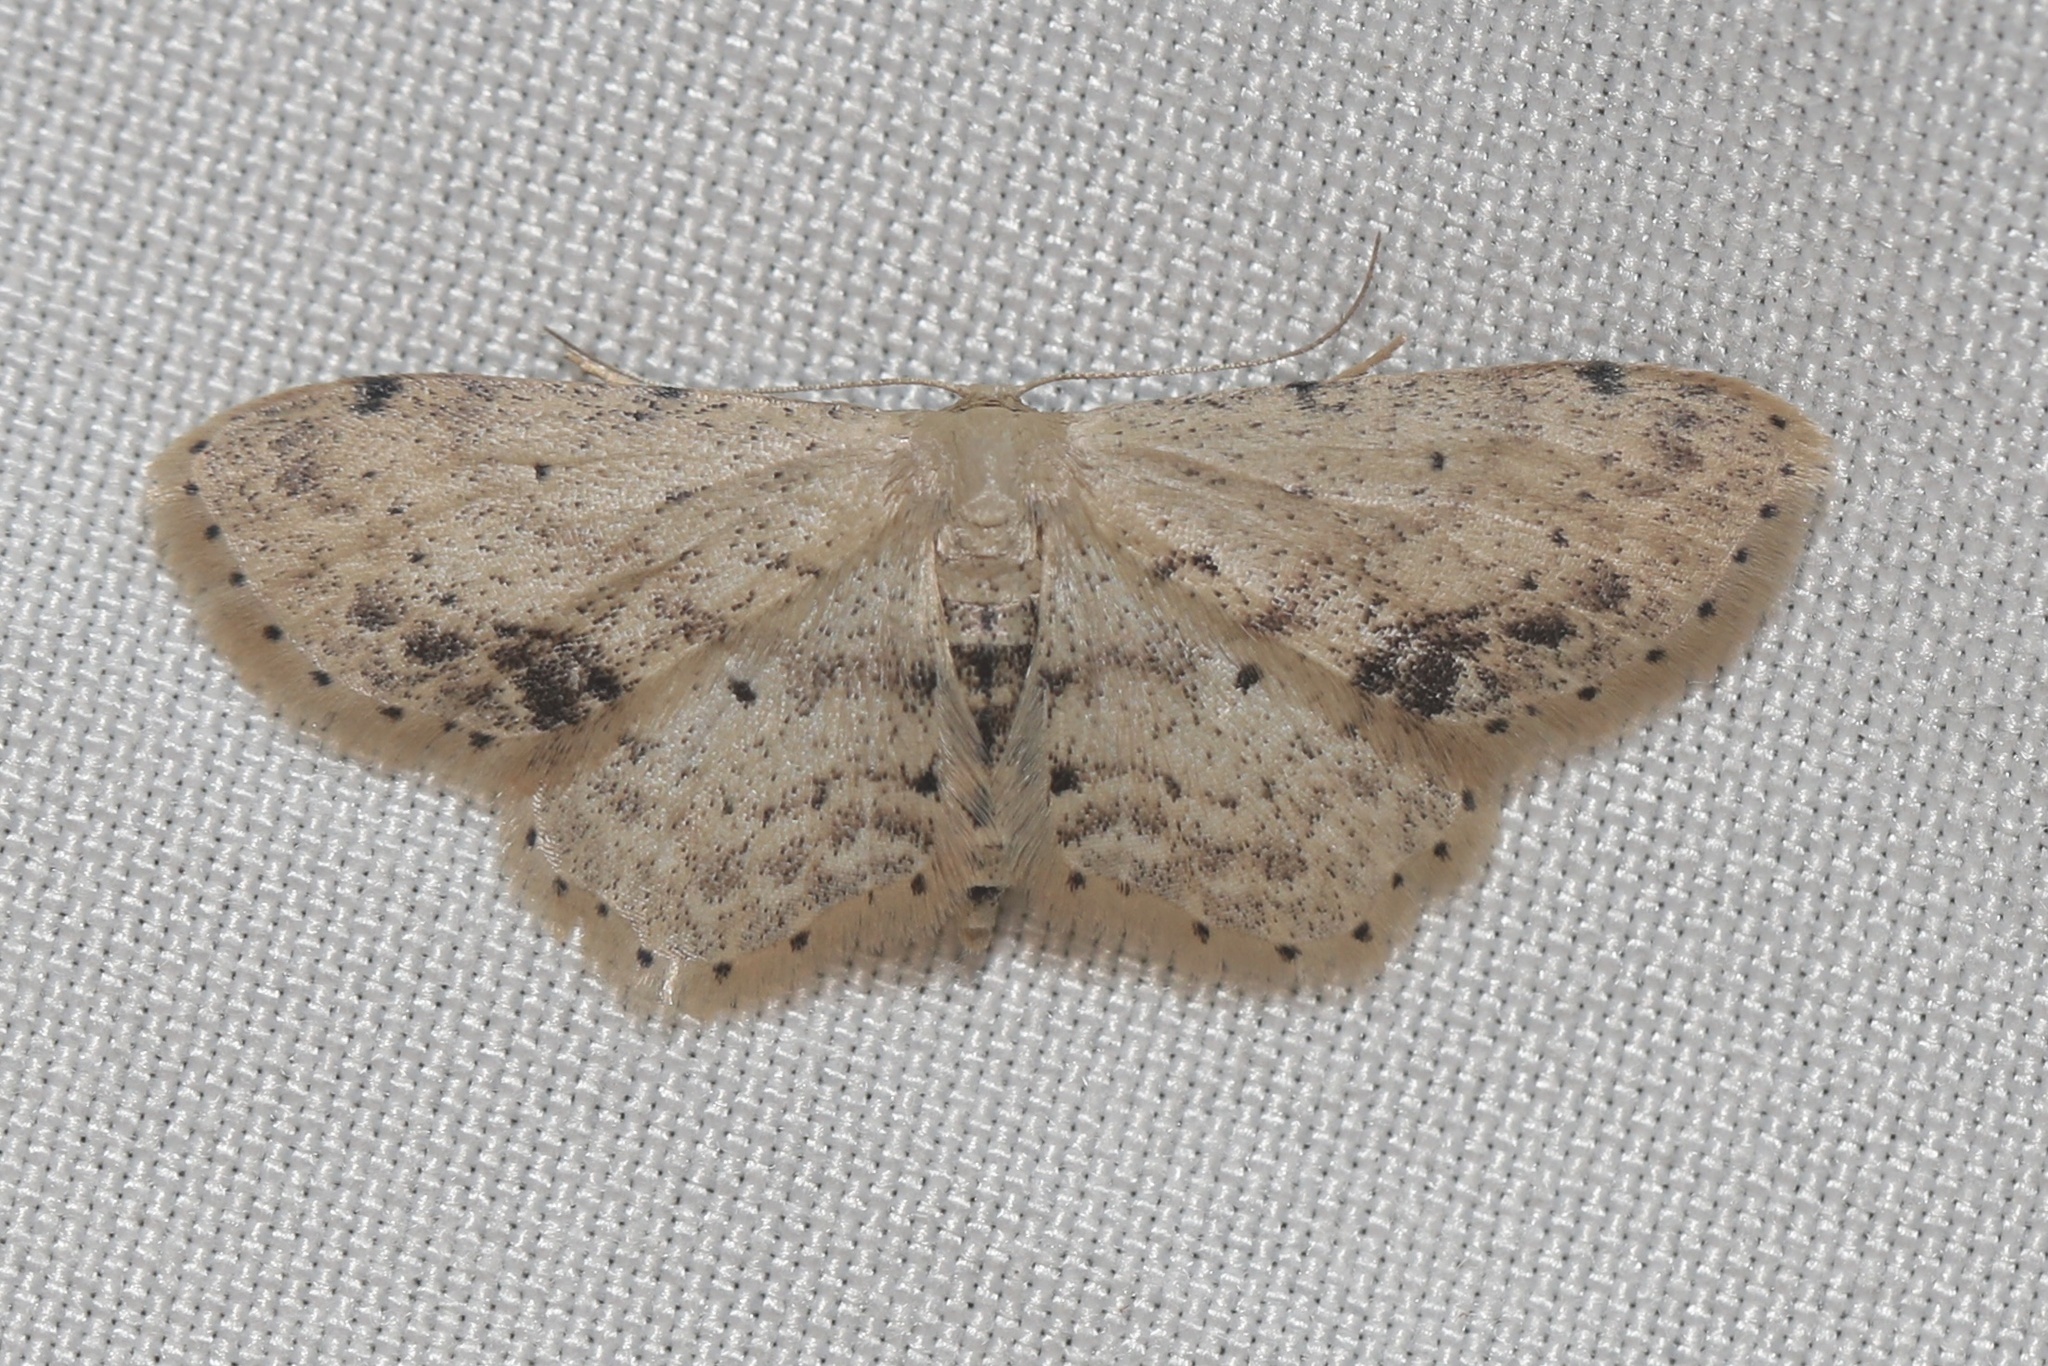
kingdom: Animalia
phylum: Arthropoda
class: Insecta
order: Lepidoptera
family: Geometridae
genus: Idaea
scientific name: Idaea dimidiata
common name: Single-dotted wave
